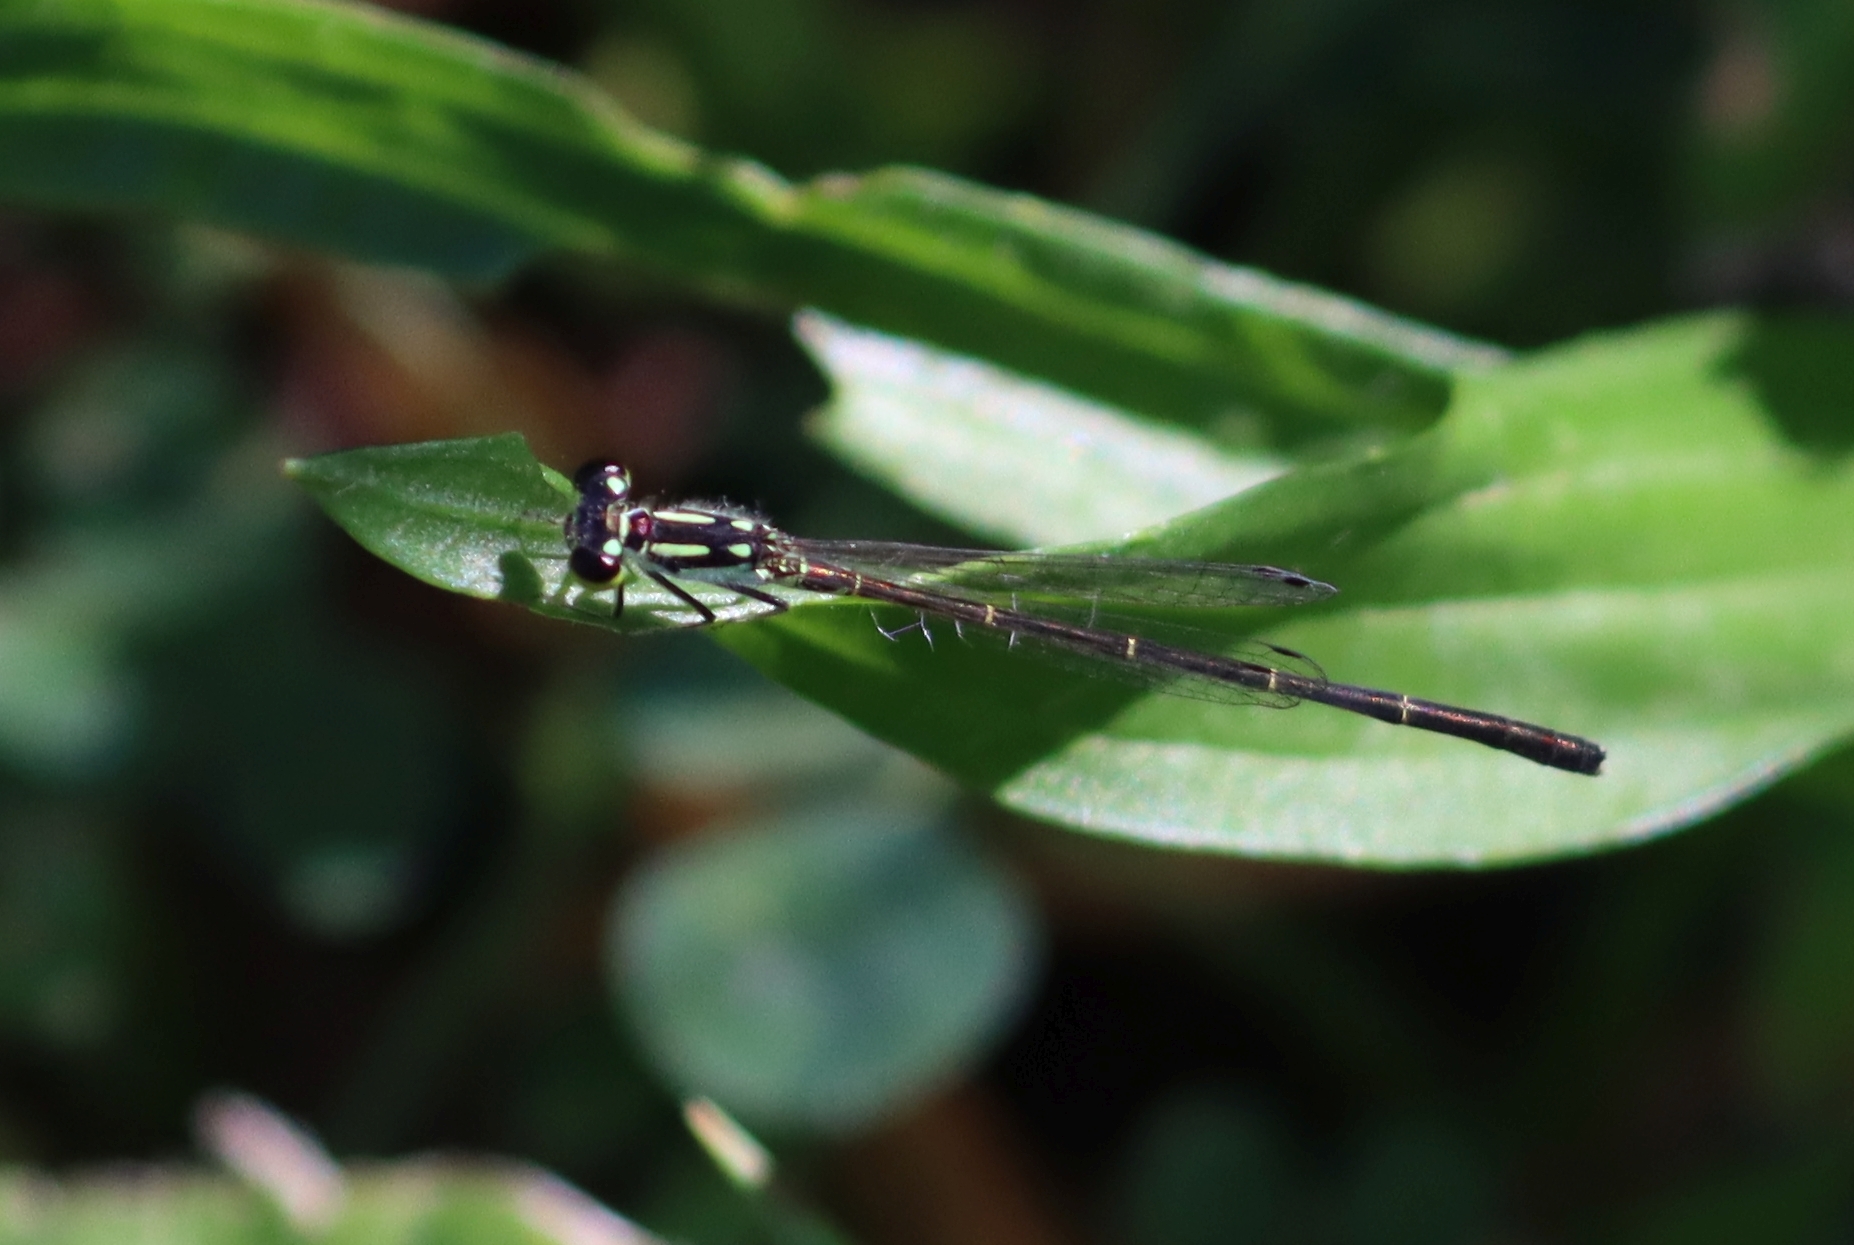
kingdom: Animalia
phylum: Arthropoda
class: Insecta
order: Odonata
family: Coenagrionidae
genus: Ischnura
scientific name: Ischnura posita
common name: Fragile forktail
